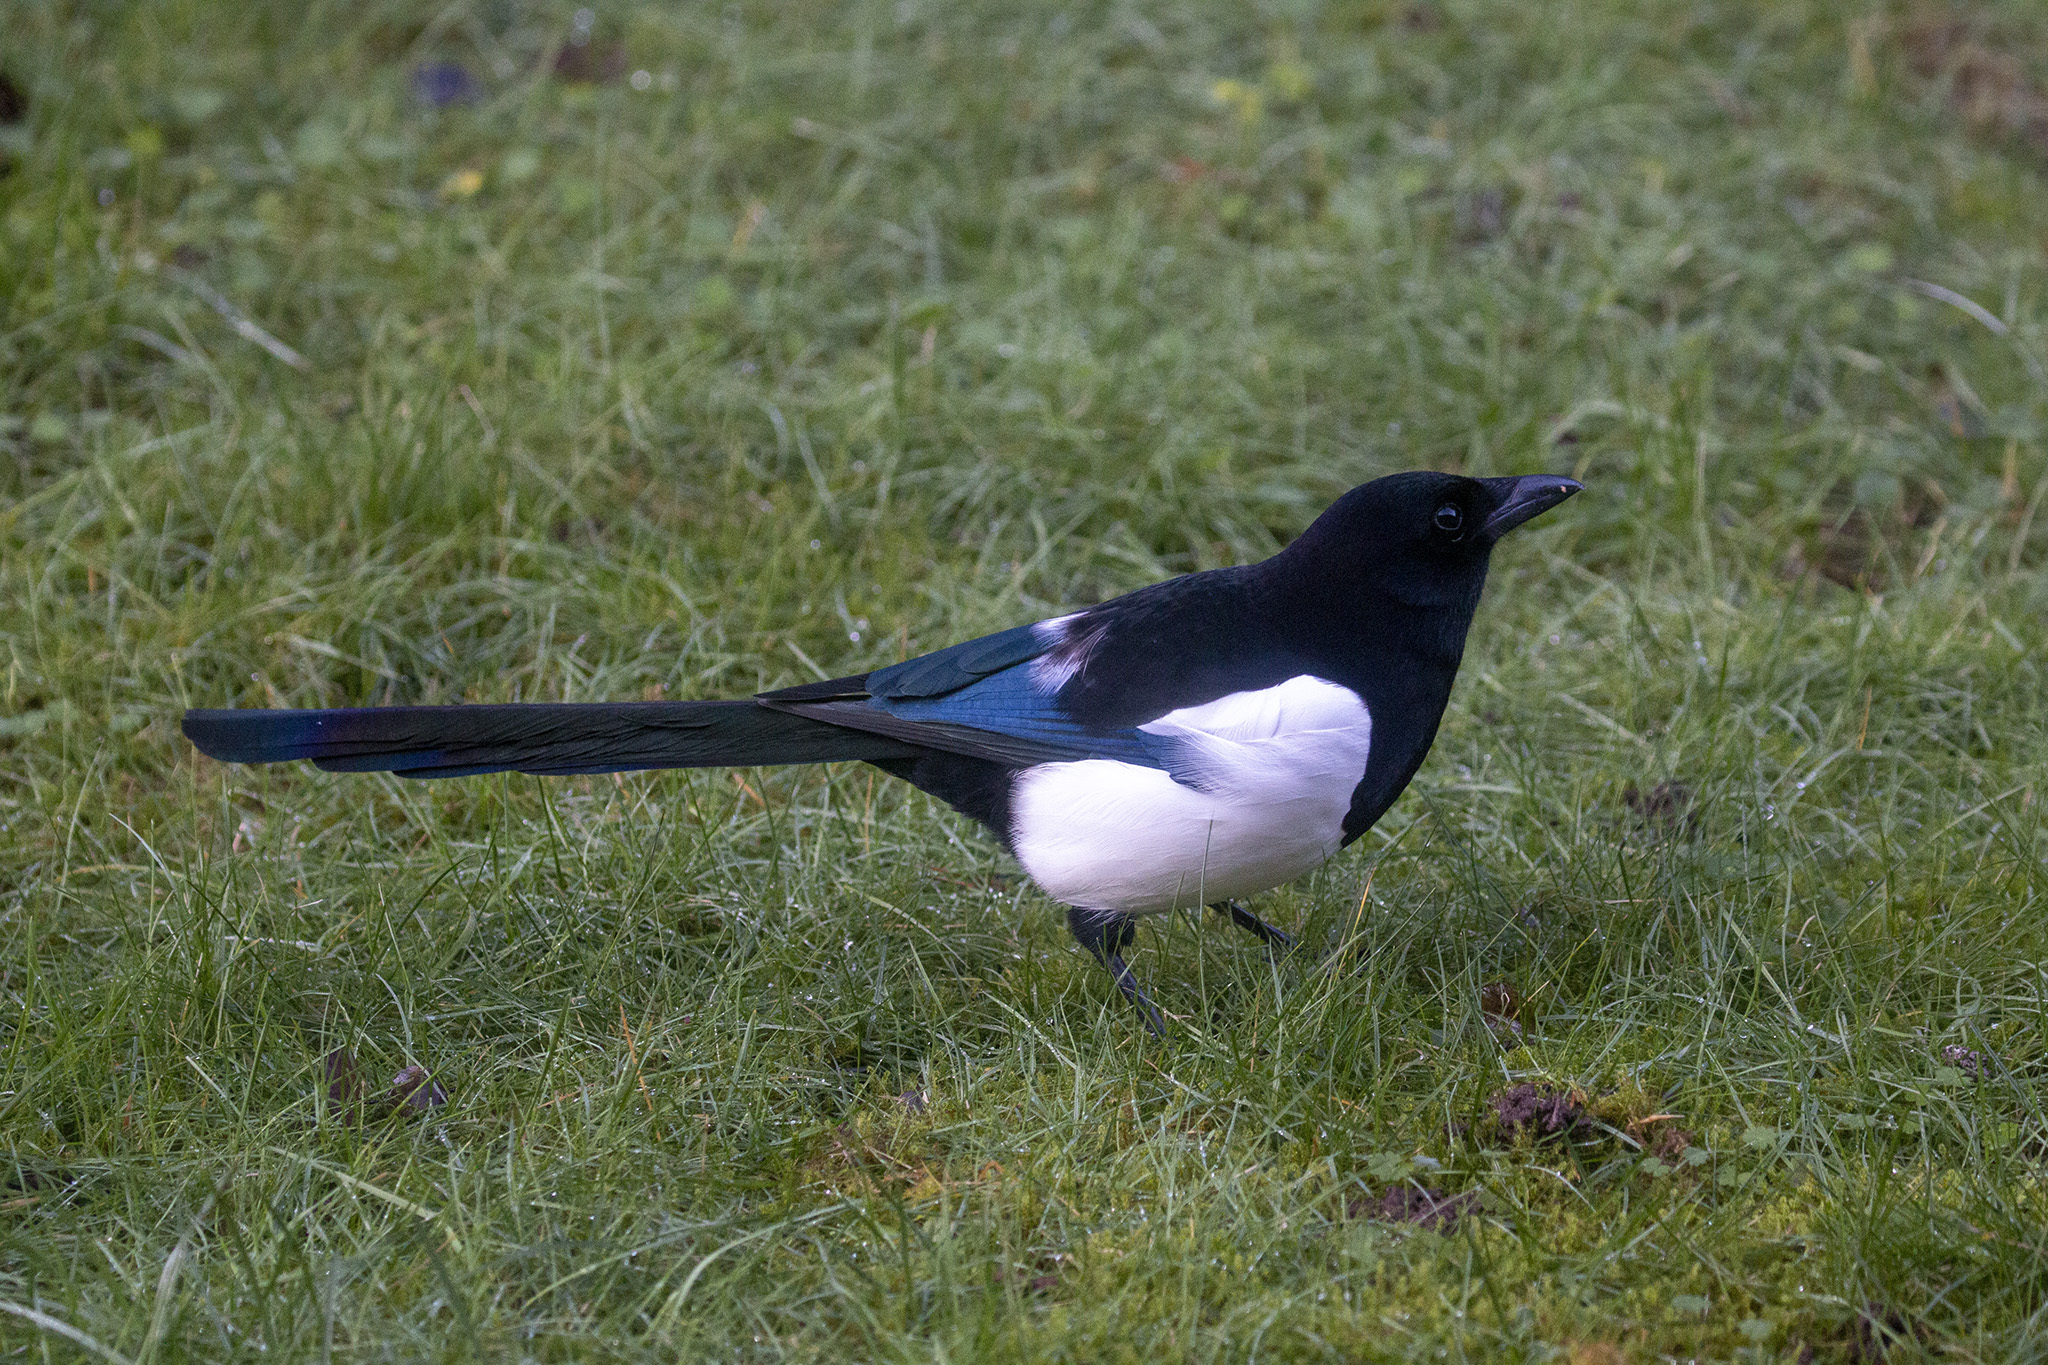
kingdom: Animalia
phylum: Chordata
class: Aves
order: Passeriformes
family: Corvidae
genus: Pica
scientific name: Pica pica
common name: Eurasian magpie
